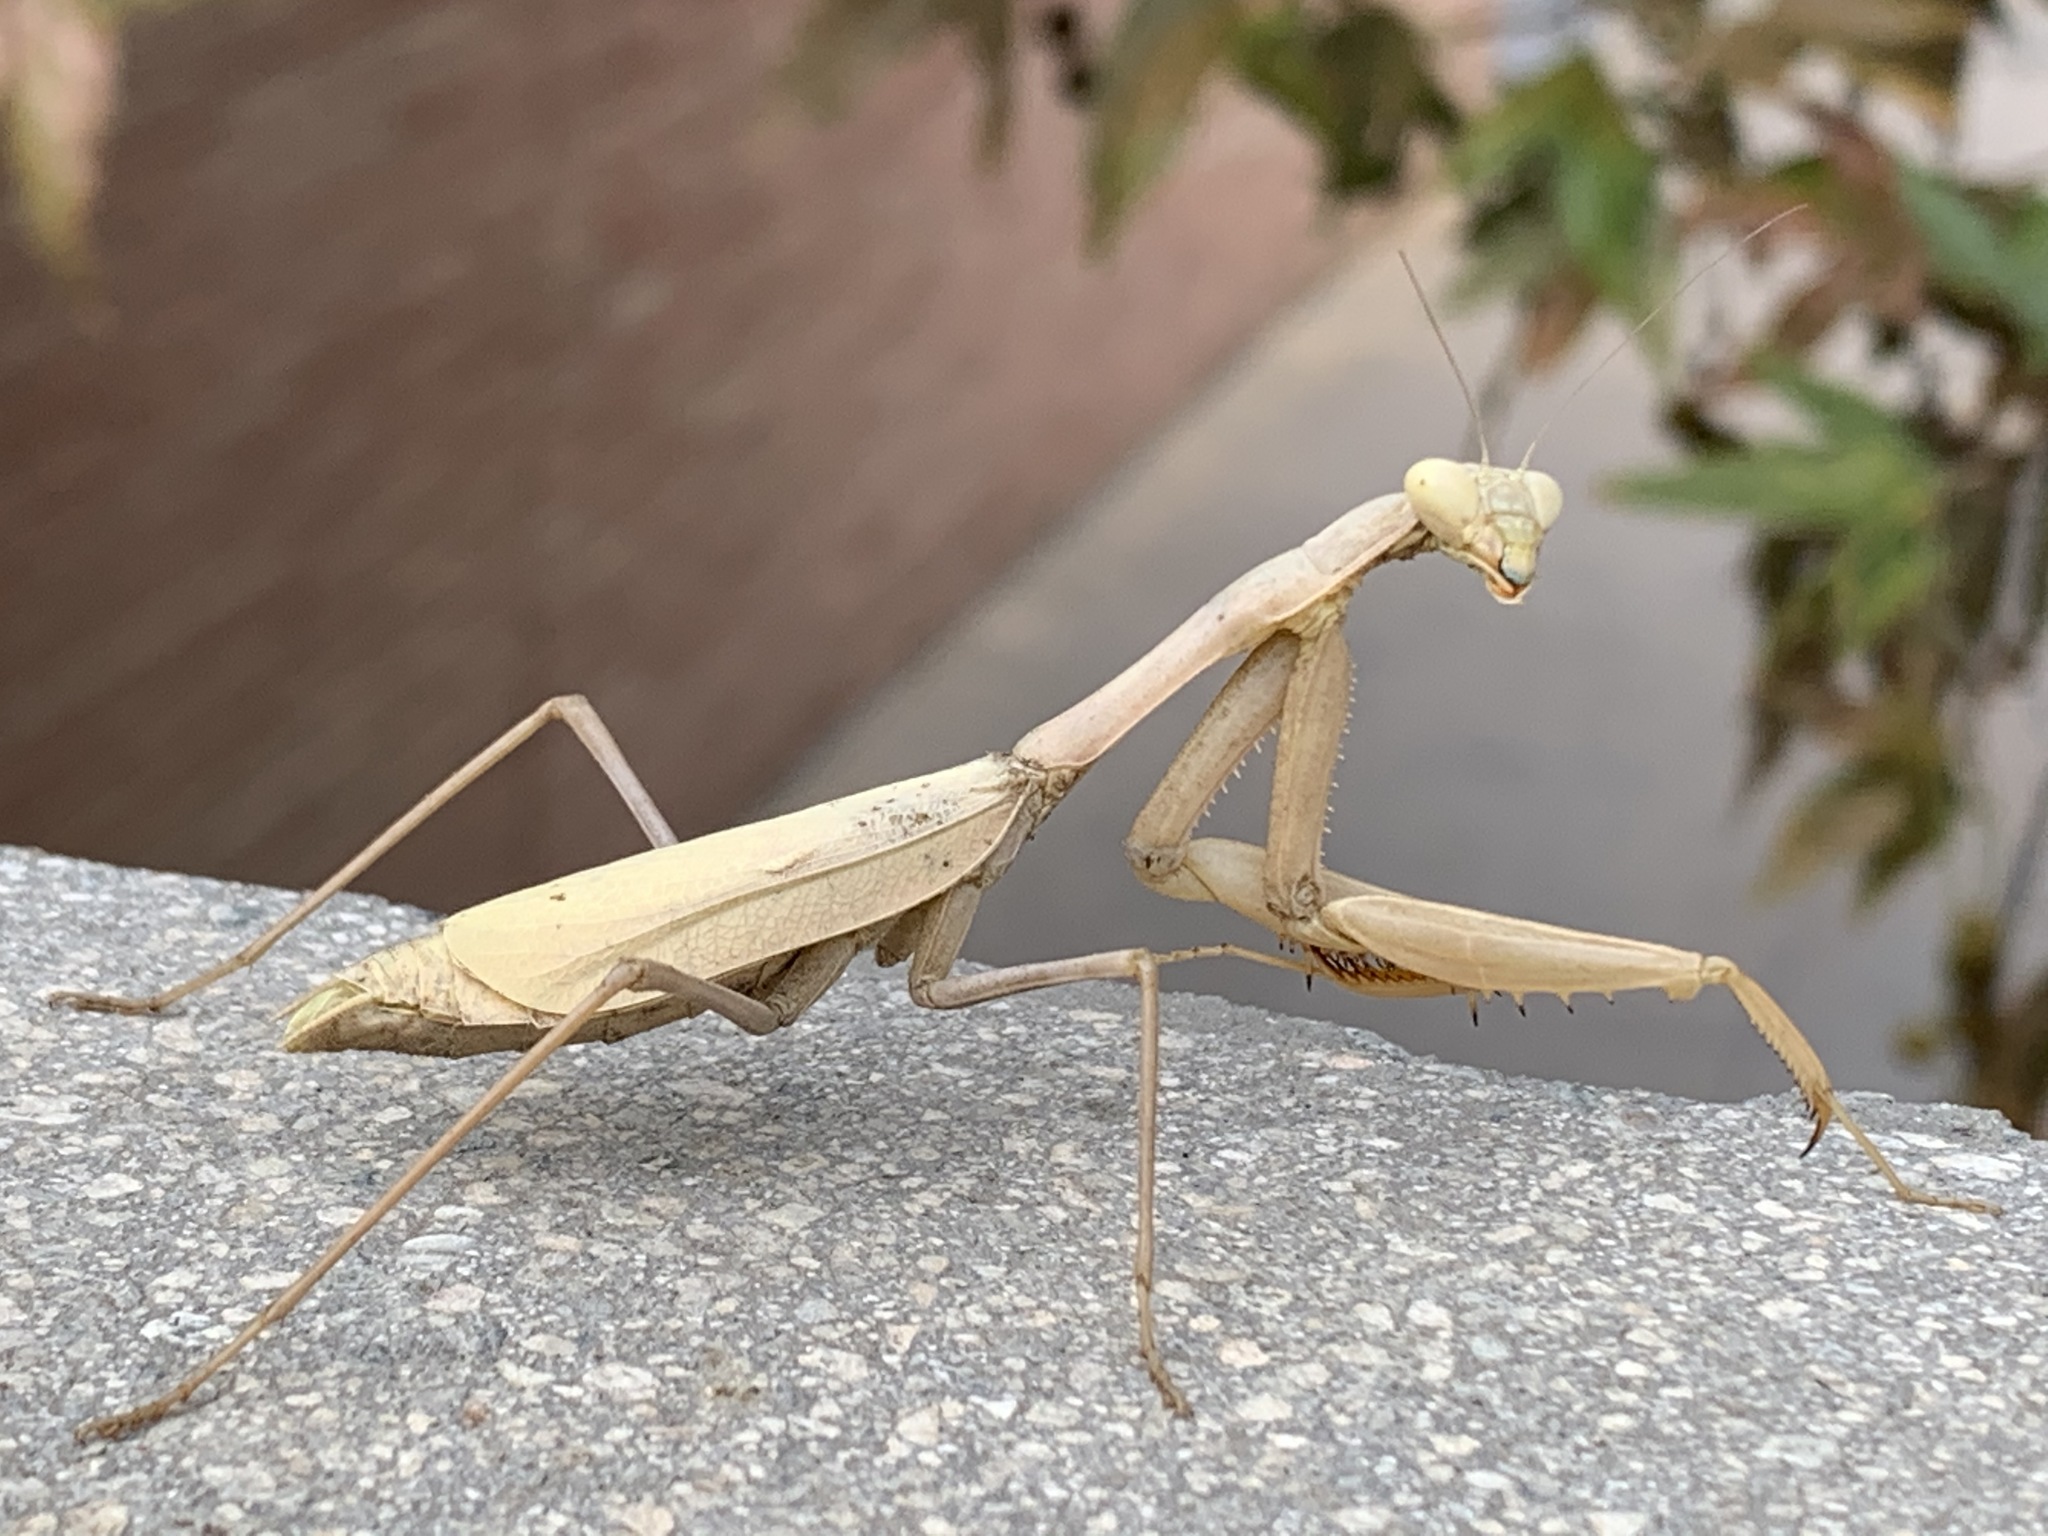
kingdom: Animalia
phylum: Arthropoda
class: Insecta
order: Mantodea
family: Mantidae
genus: Stagmomantis
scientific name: Stagmomantis limbata
